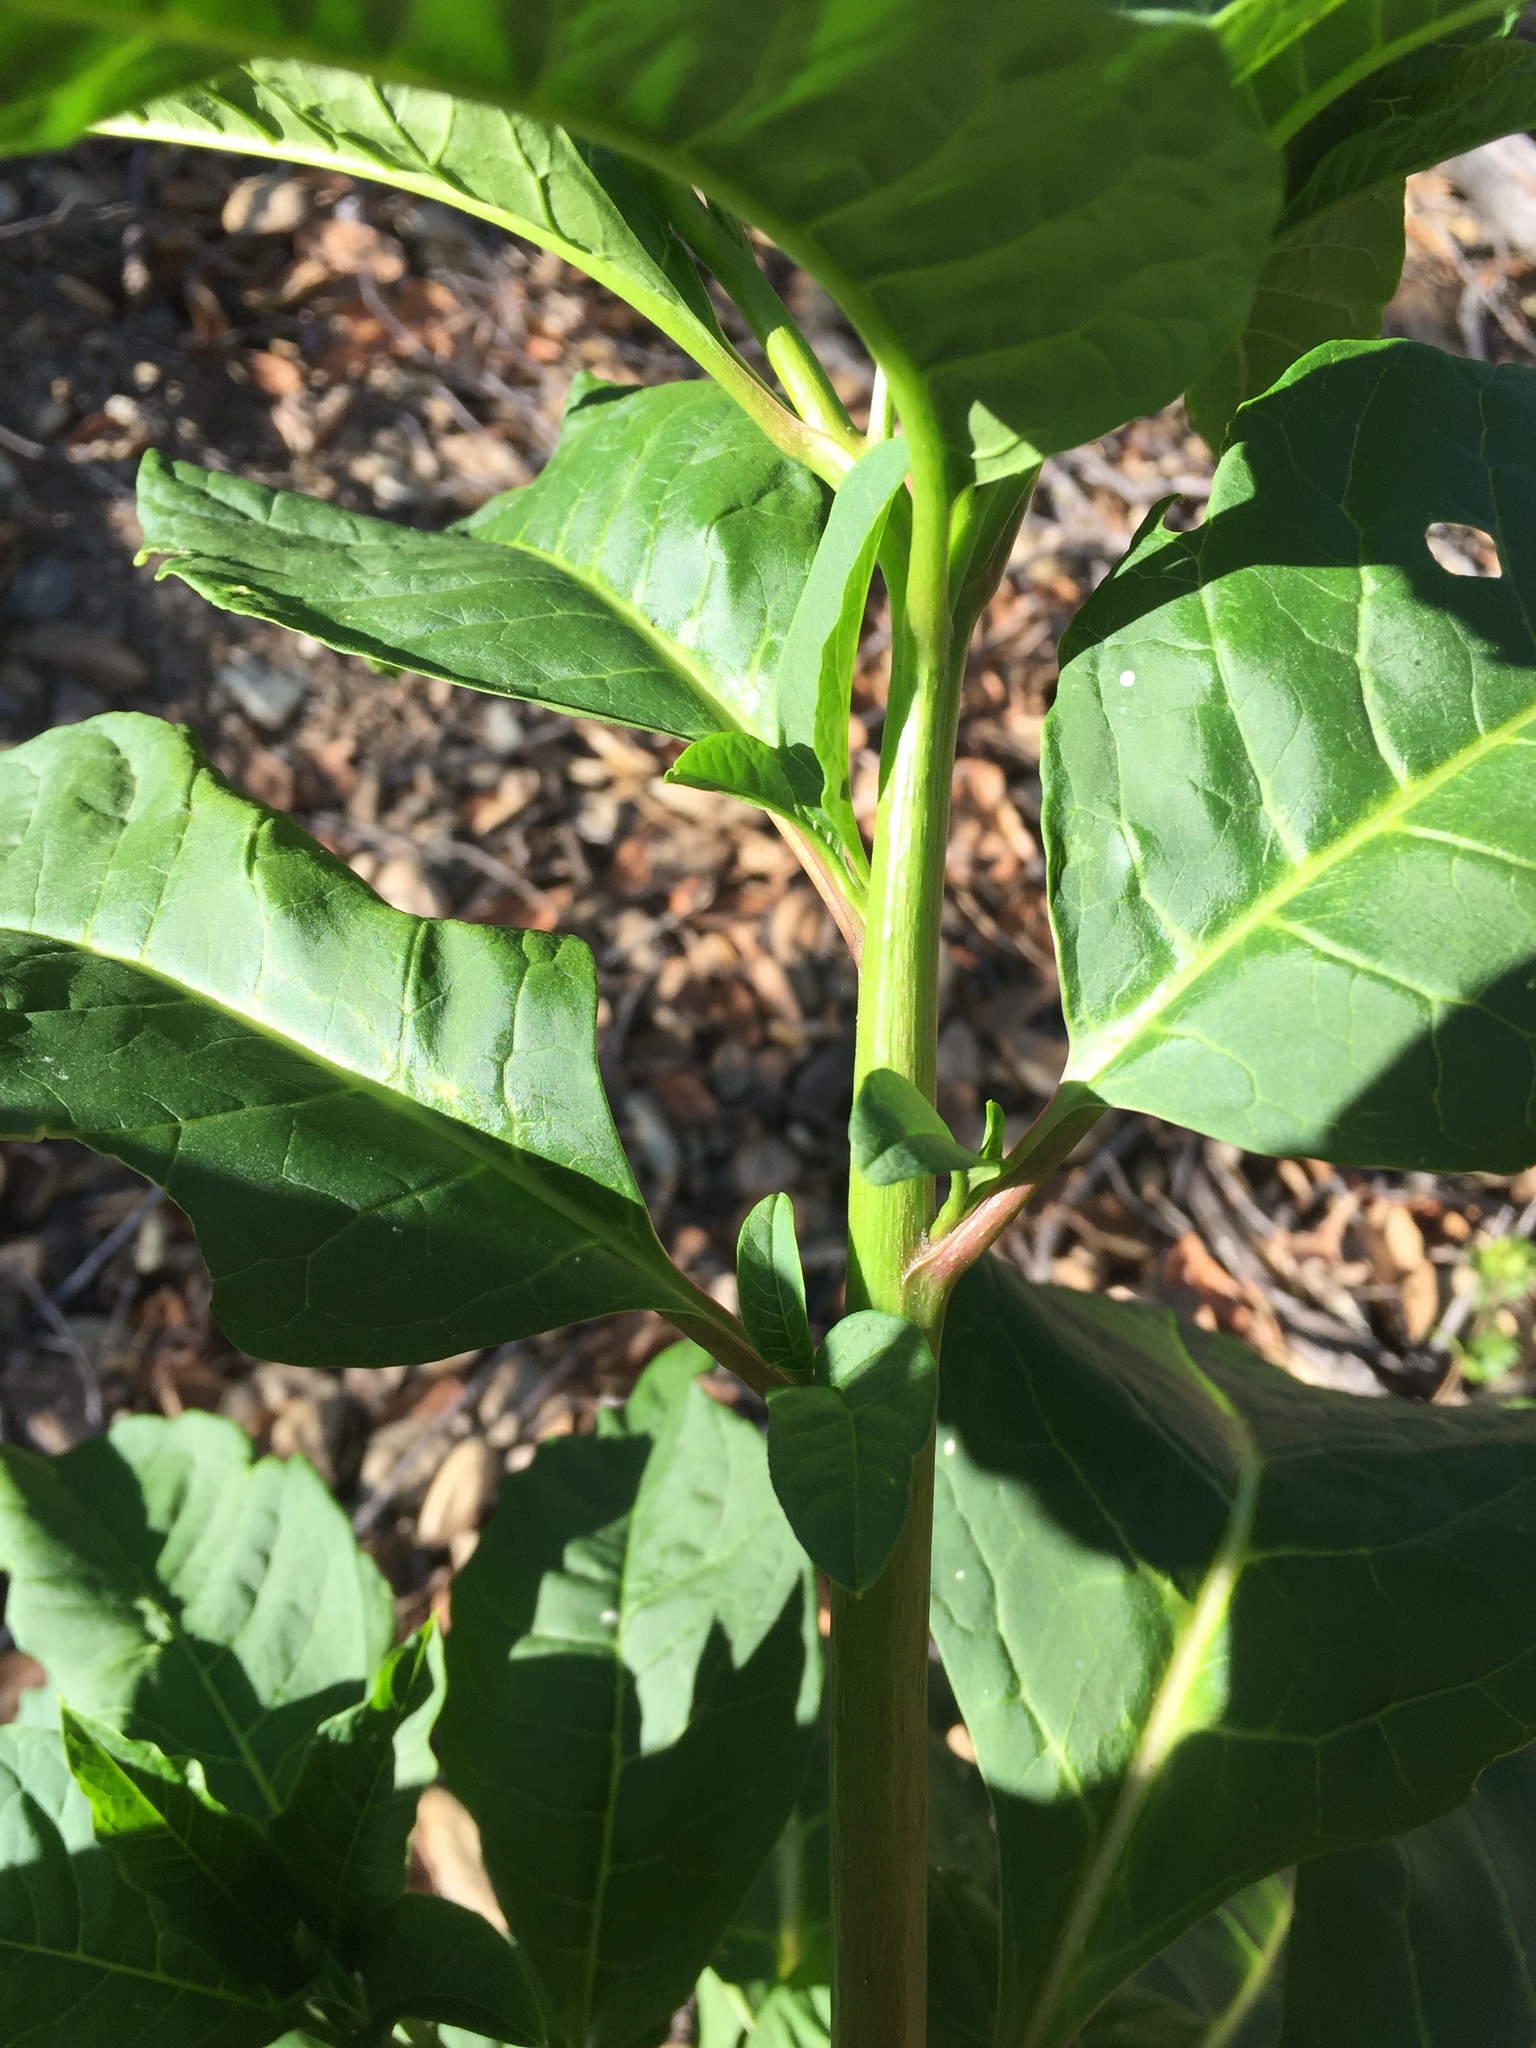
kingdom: Plantae
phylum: Tracheophyta
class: Magnoliopsida
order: Caryophyllales
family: Phytolaccaceae
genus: Phytolacca
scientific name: Phytolacca americana
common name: American pokeweed
